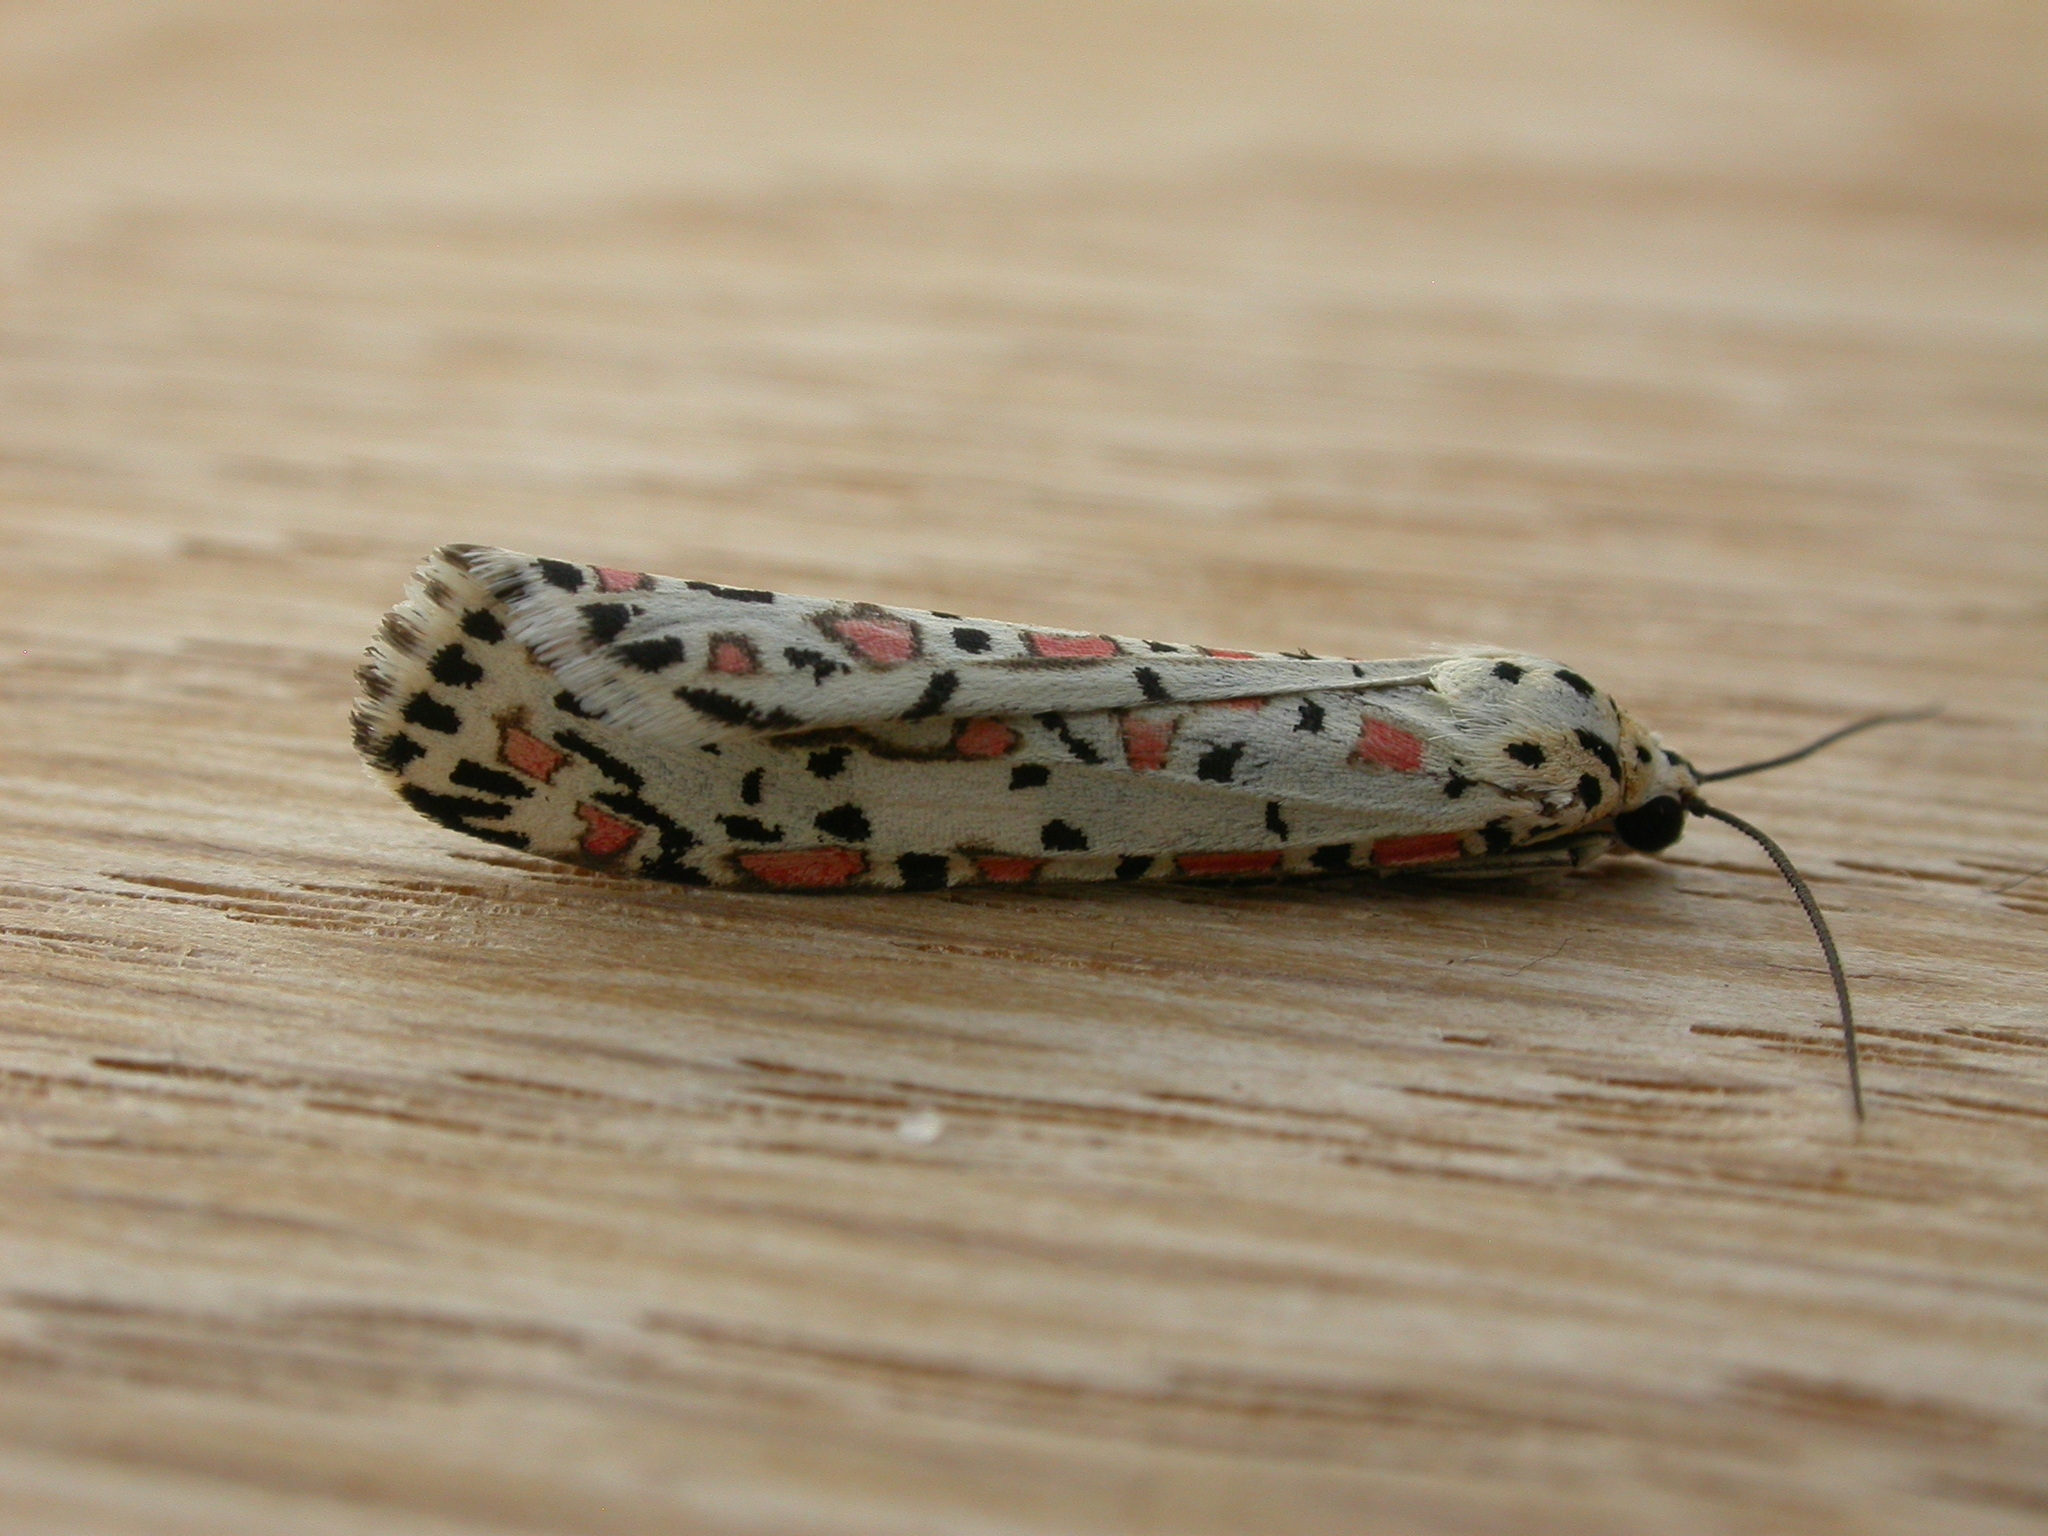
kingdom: Animalia
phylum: Arthropoda
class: Insecta
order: Lepidoptera
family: Erebidae
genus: Utetheisa
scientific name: Utetheisa pulchelloides
